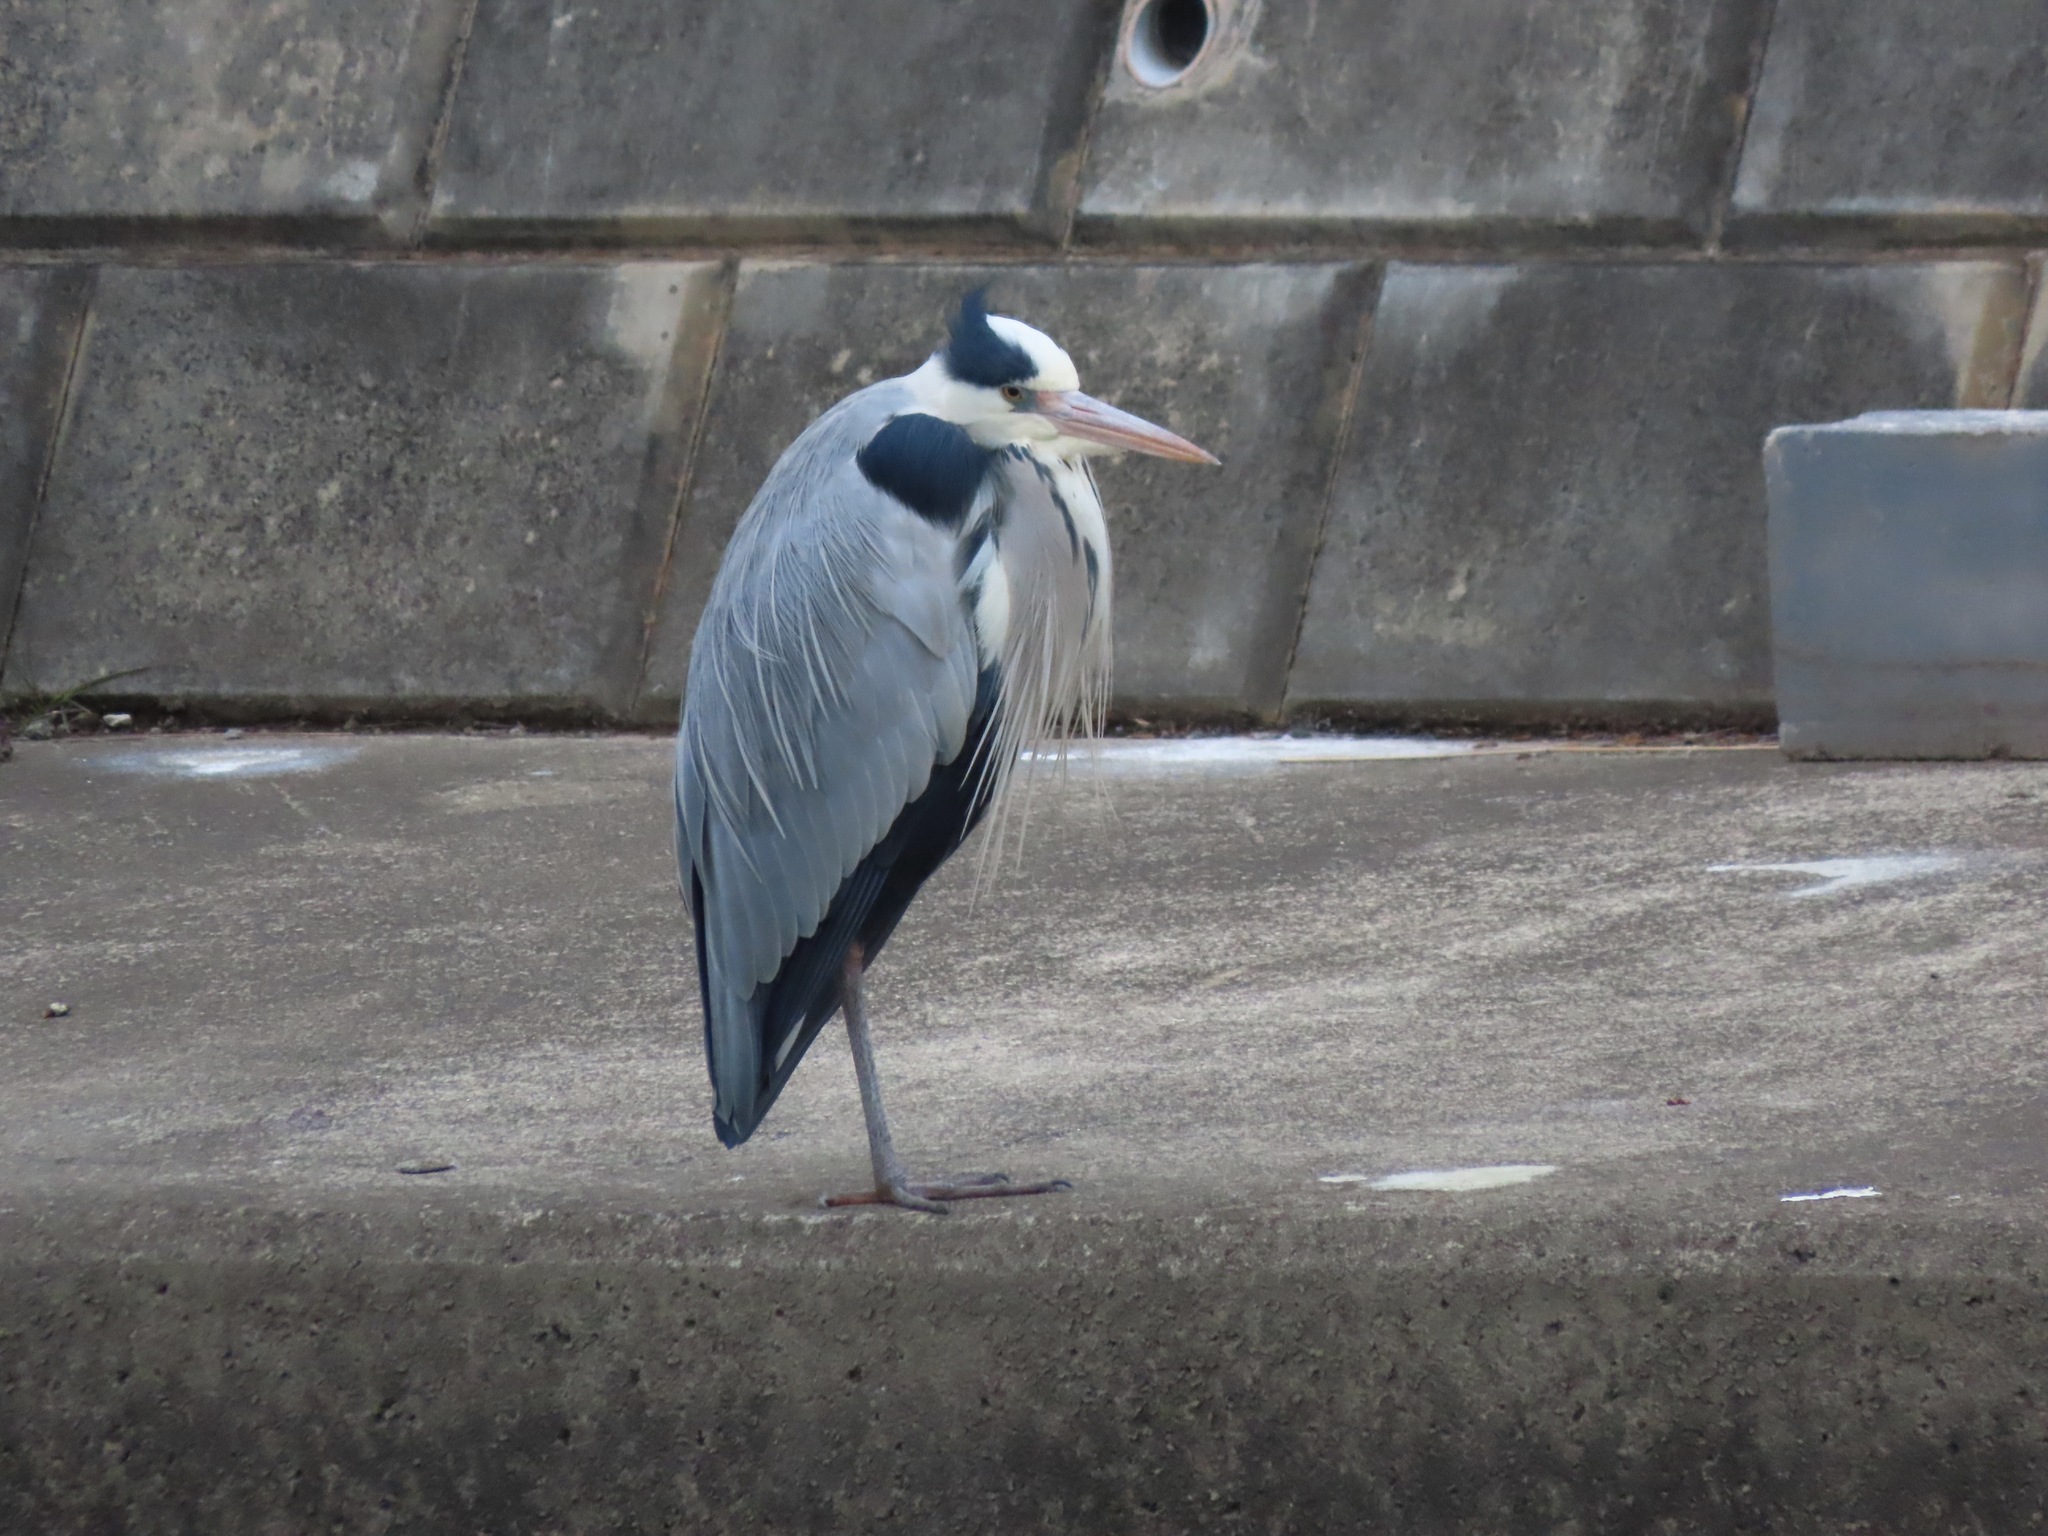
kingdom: Animalia
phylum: Chordata
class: Aves
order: Pelecaniformes
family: Ardeidae
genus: Ardea
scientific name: Ardea cinerea
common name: Grey heron
